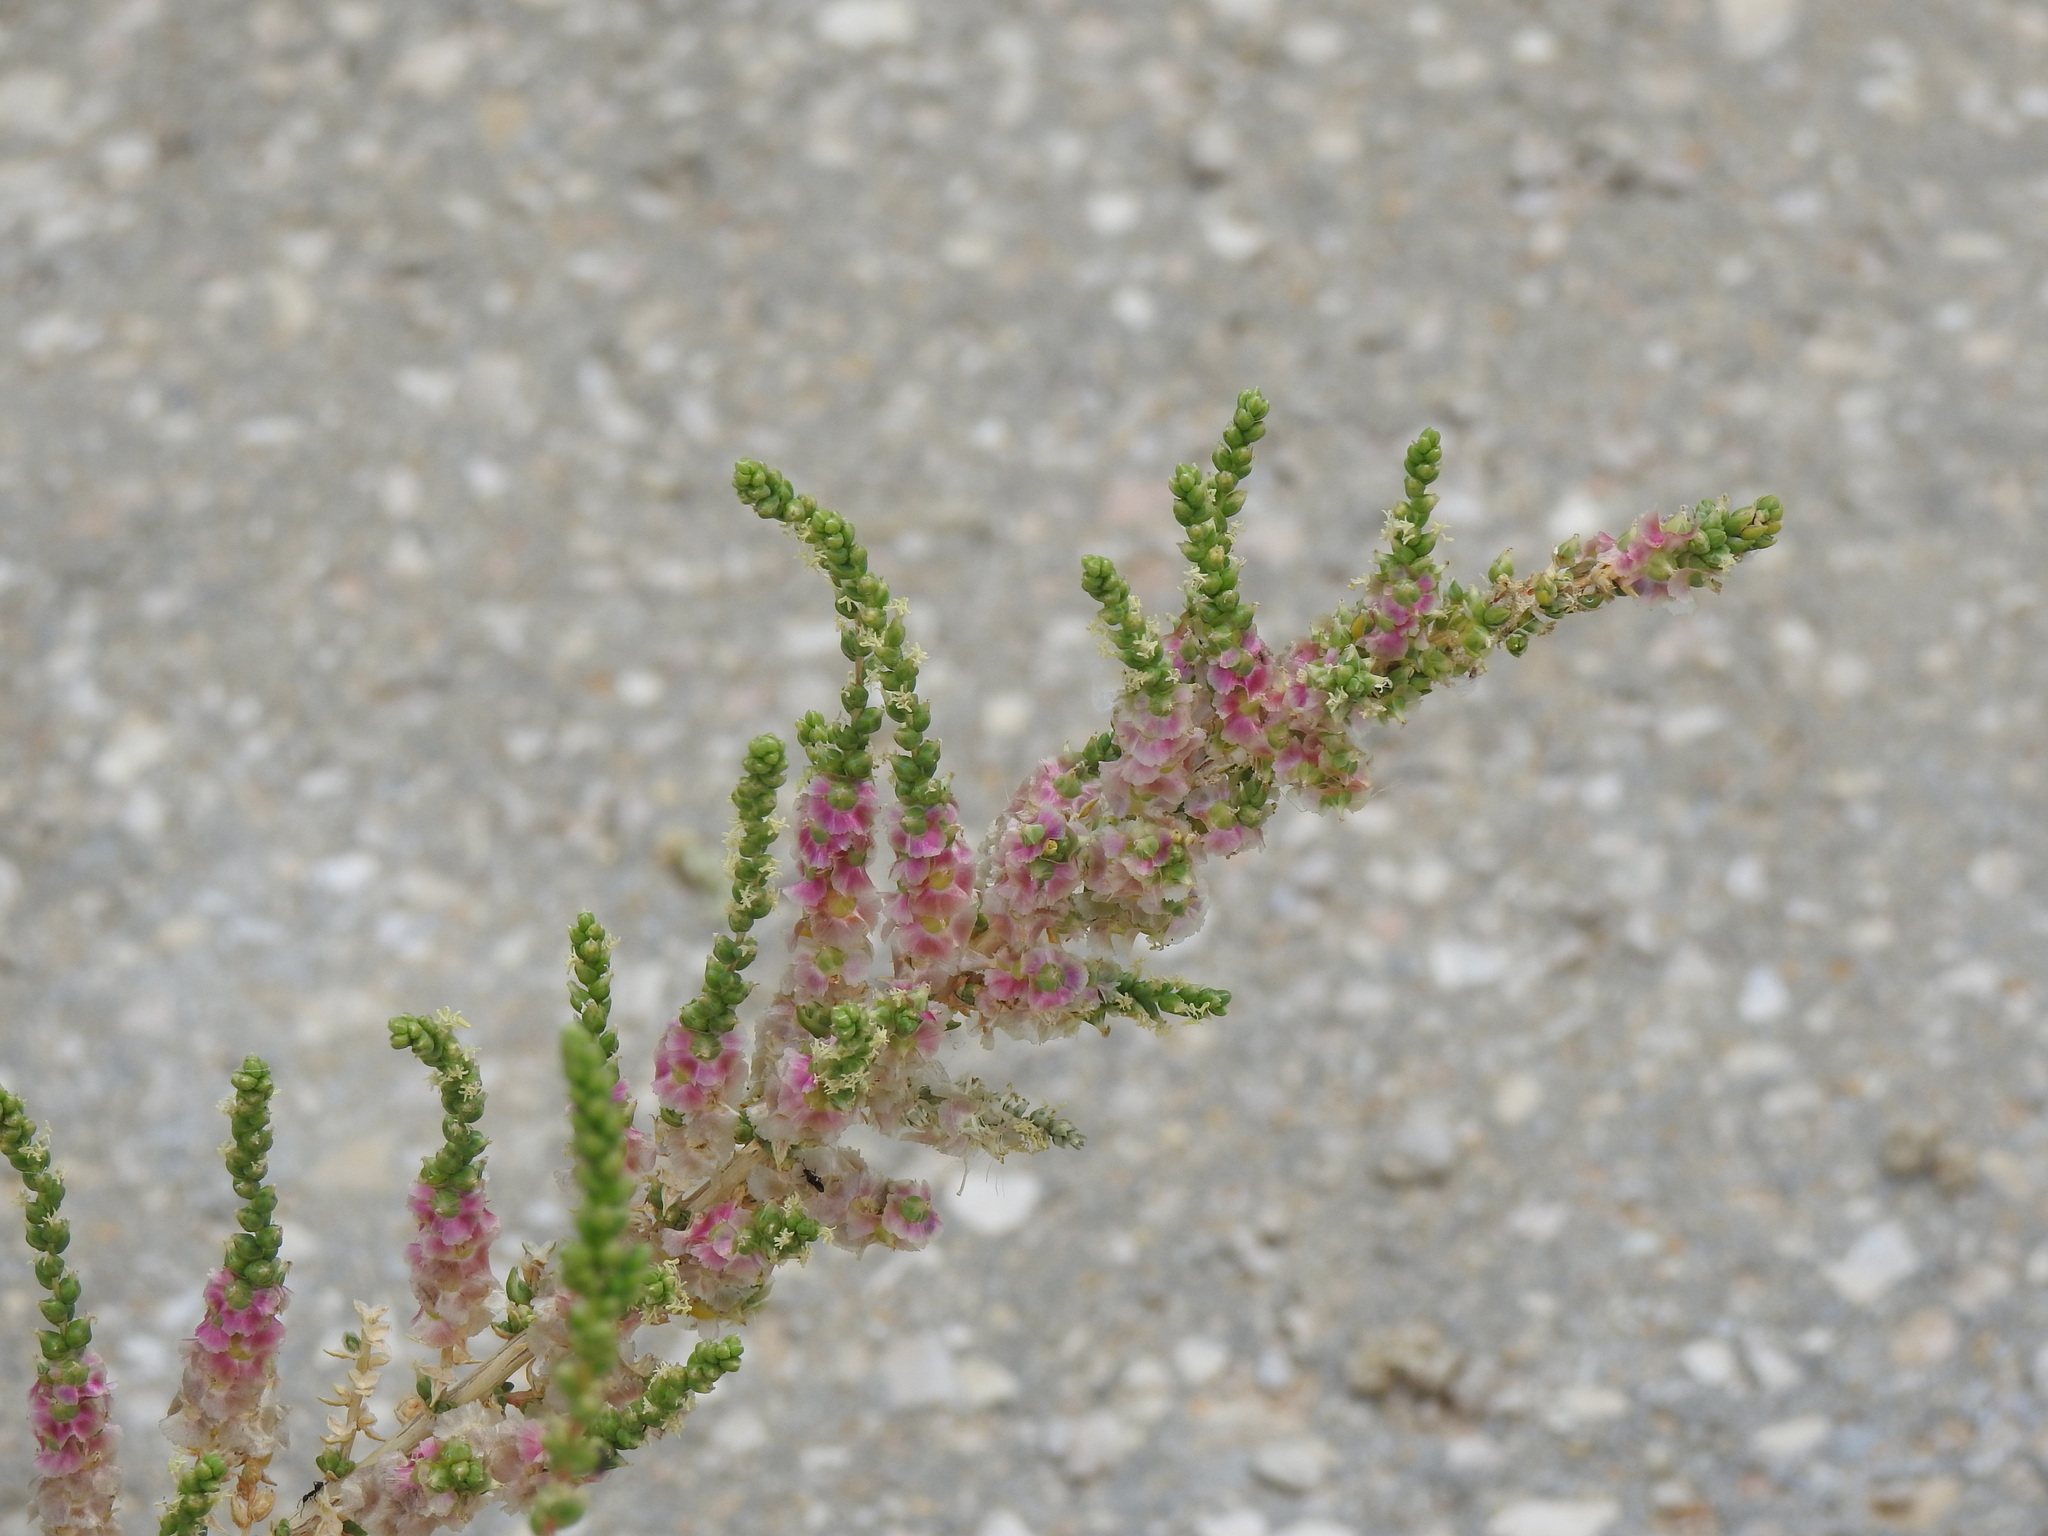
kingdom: Plantae
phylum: Tracheophyta
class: Magnoliopsida
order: Caryophyllales
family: Amaranthaceae
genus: Nitrosalsola
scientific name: Nitrosalsola vermiculata
